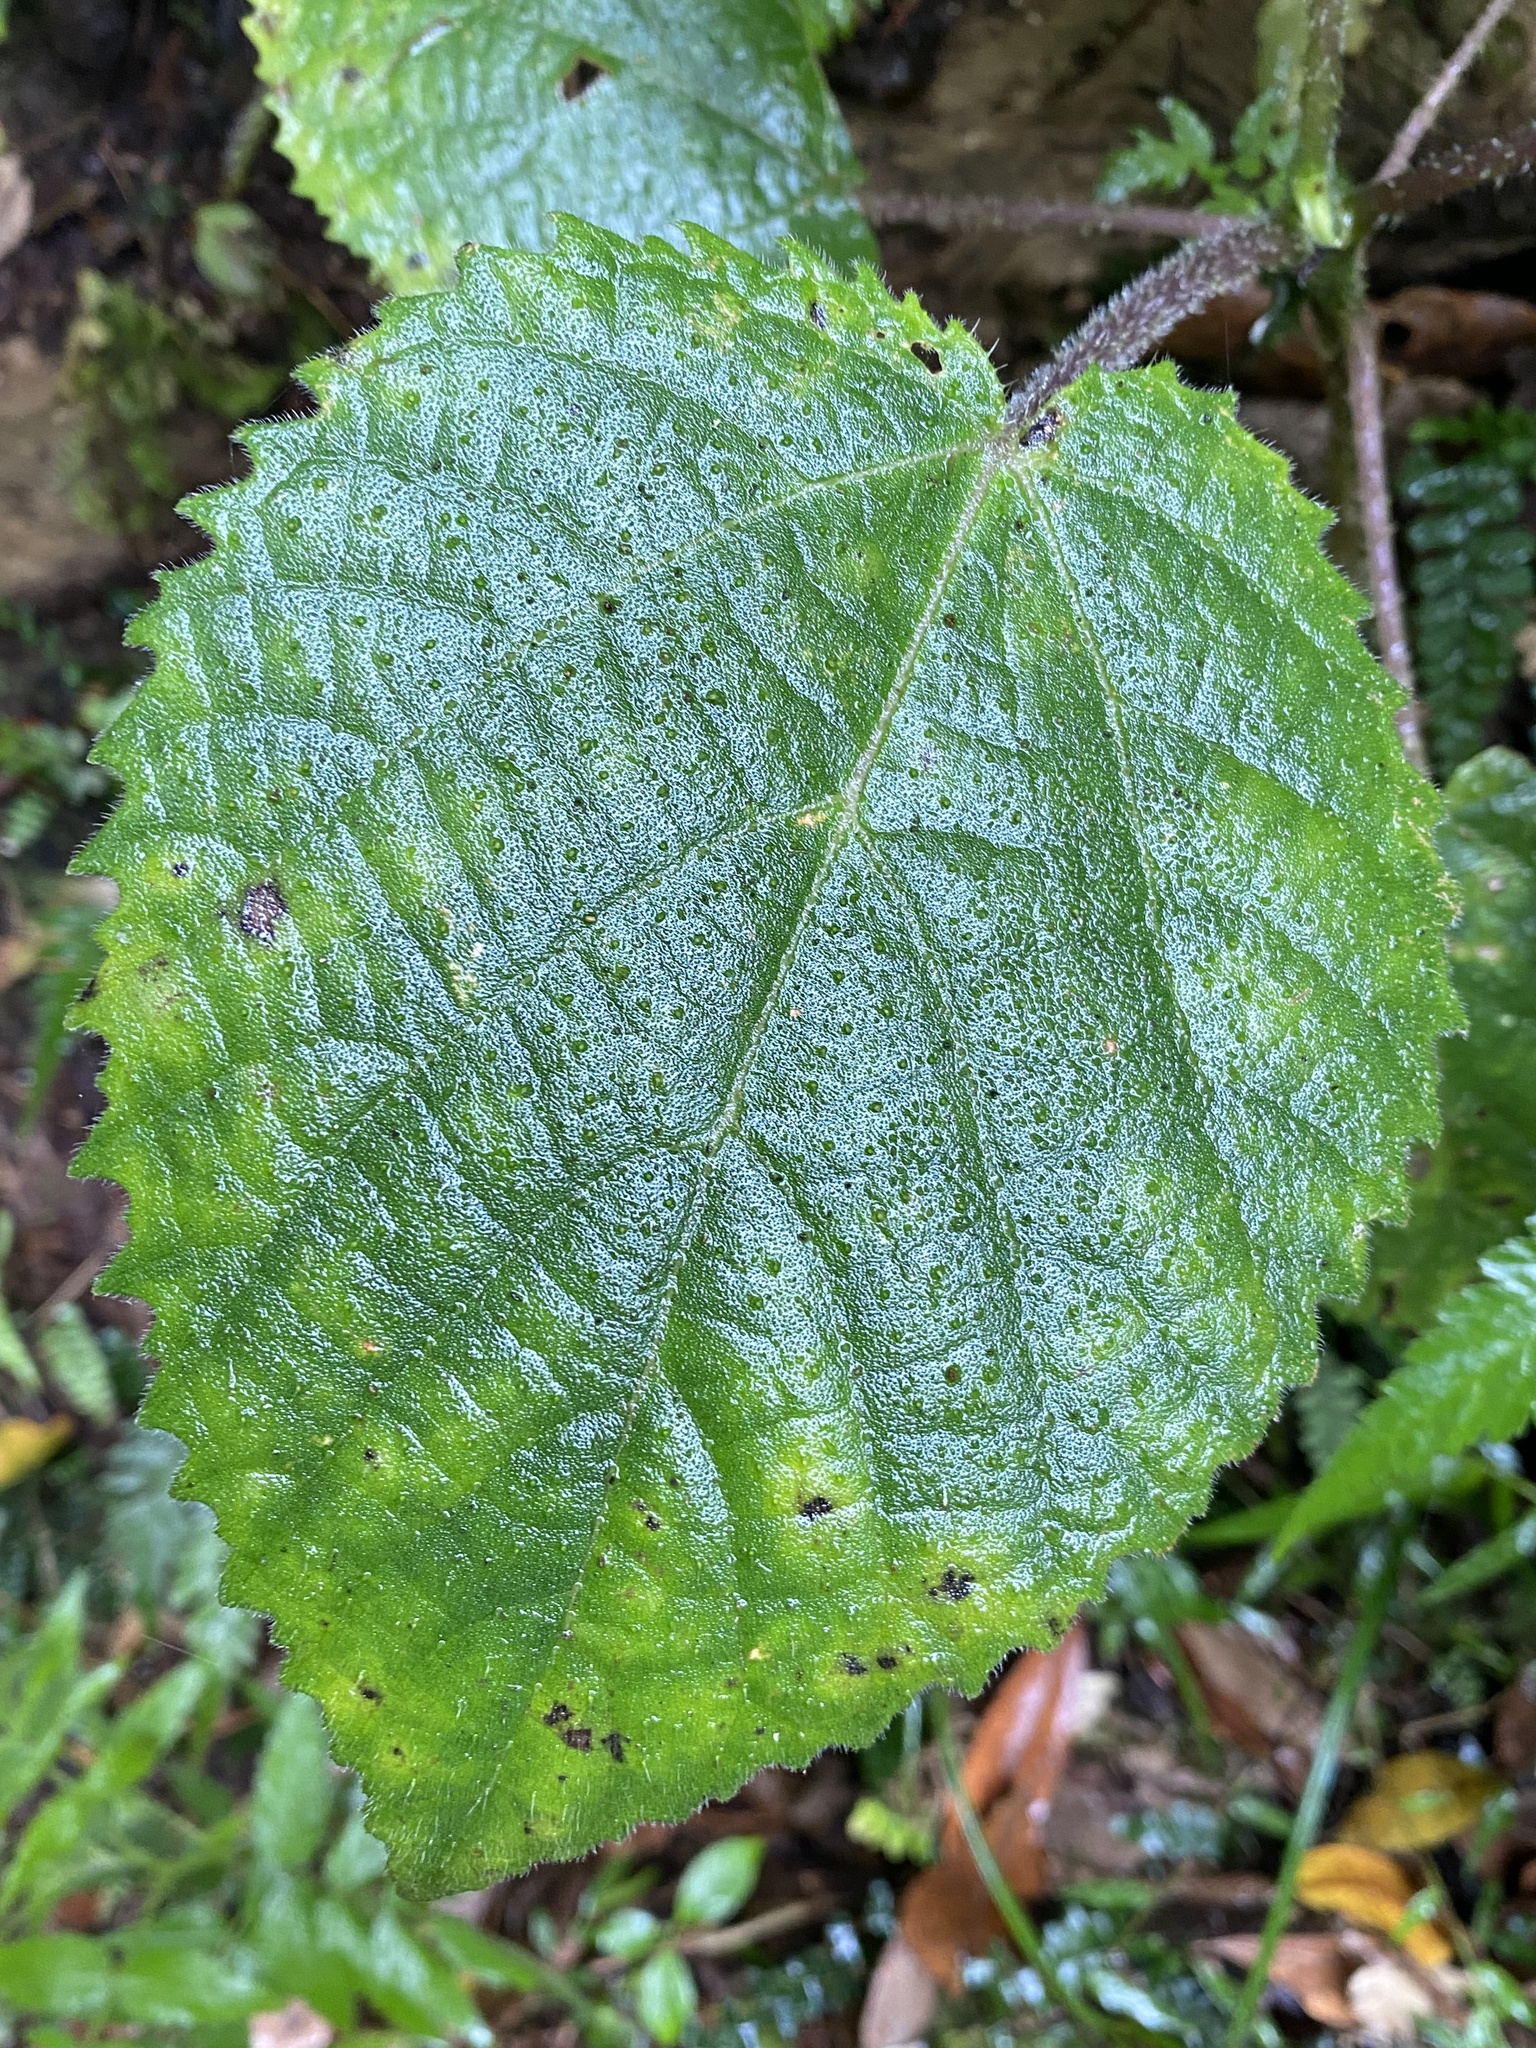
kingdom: Plantae
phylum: Tracheophyta
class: Magnoliopsida
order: Rosales
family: Urticaceae
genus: Dendrocnide
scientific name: Dendrocnide excelsa
